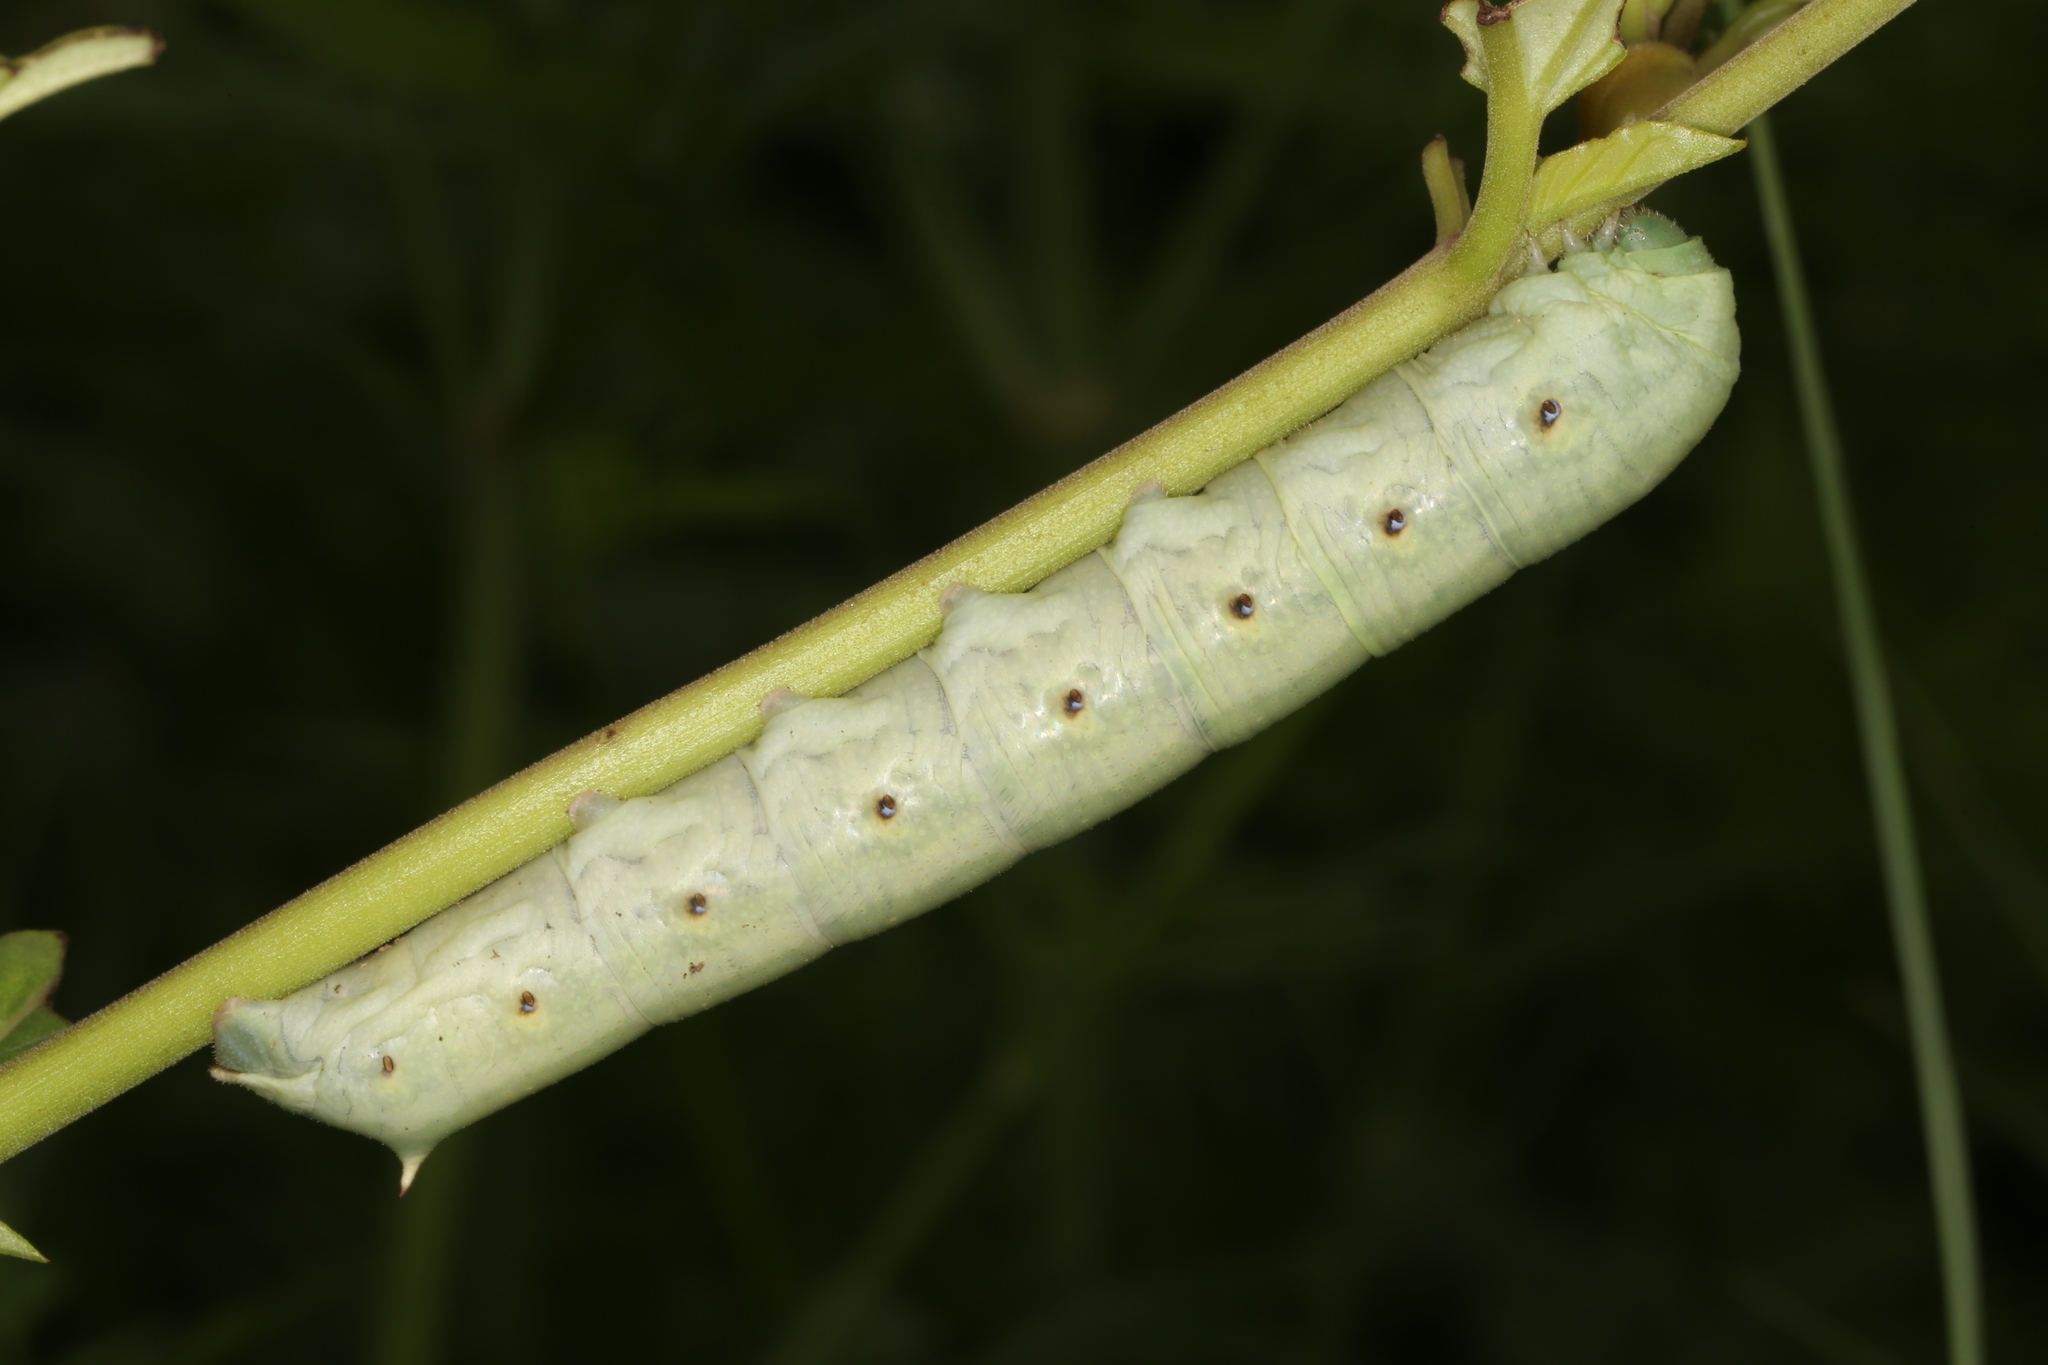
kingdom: Animalia
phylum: Arthropoda
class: Insecta
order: Lepidoptera
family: Sphingidae
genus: Proserpinus
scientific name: Proserpinus terlooii
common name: Terloo's sphinx
